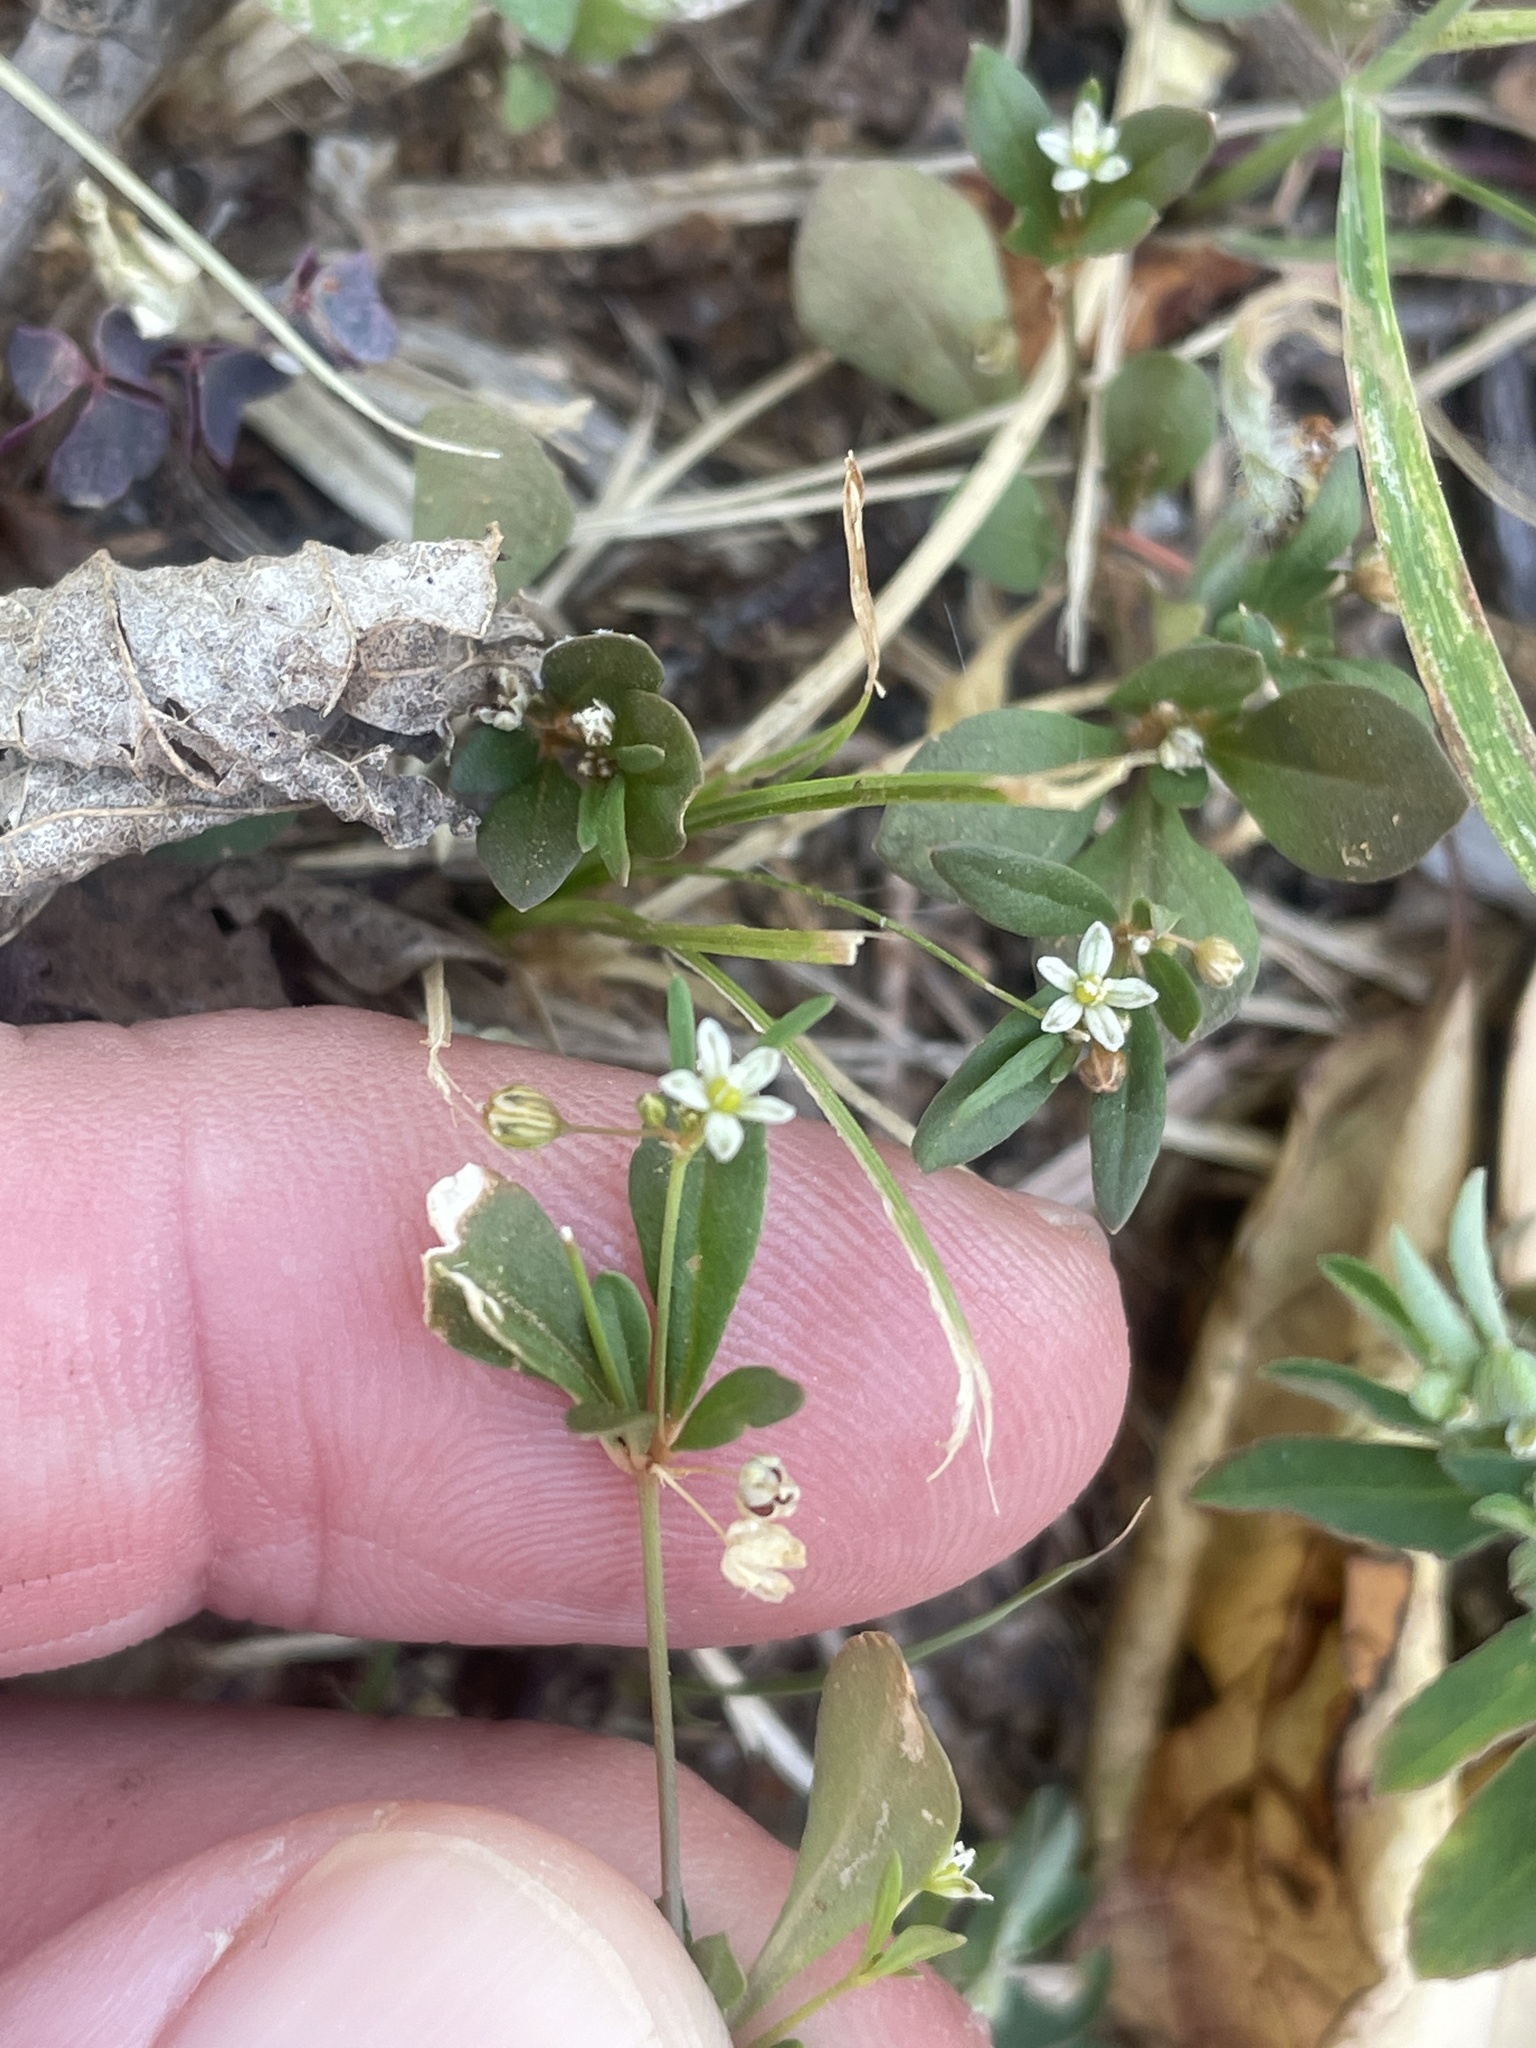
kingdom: Plantae
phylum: Tracheophyta
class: Magnoliopsida
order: Caryophyllales
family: Molluginaceae
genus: Mollugo
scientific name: Mollugo verticillata
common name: Green carpetweed
